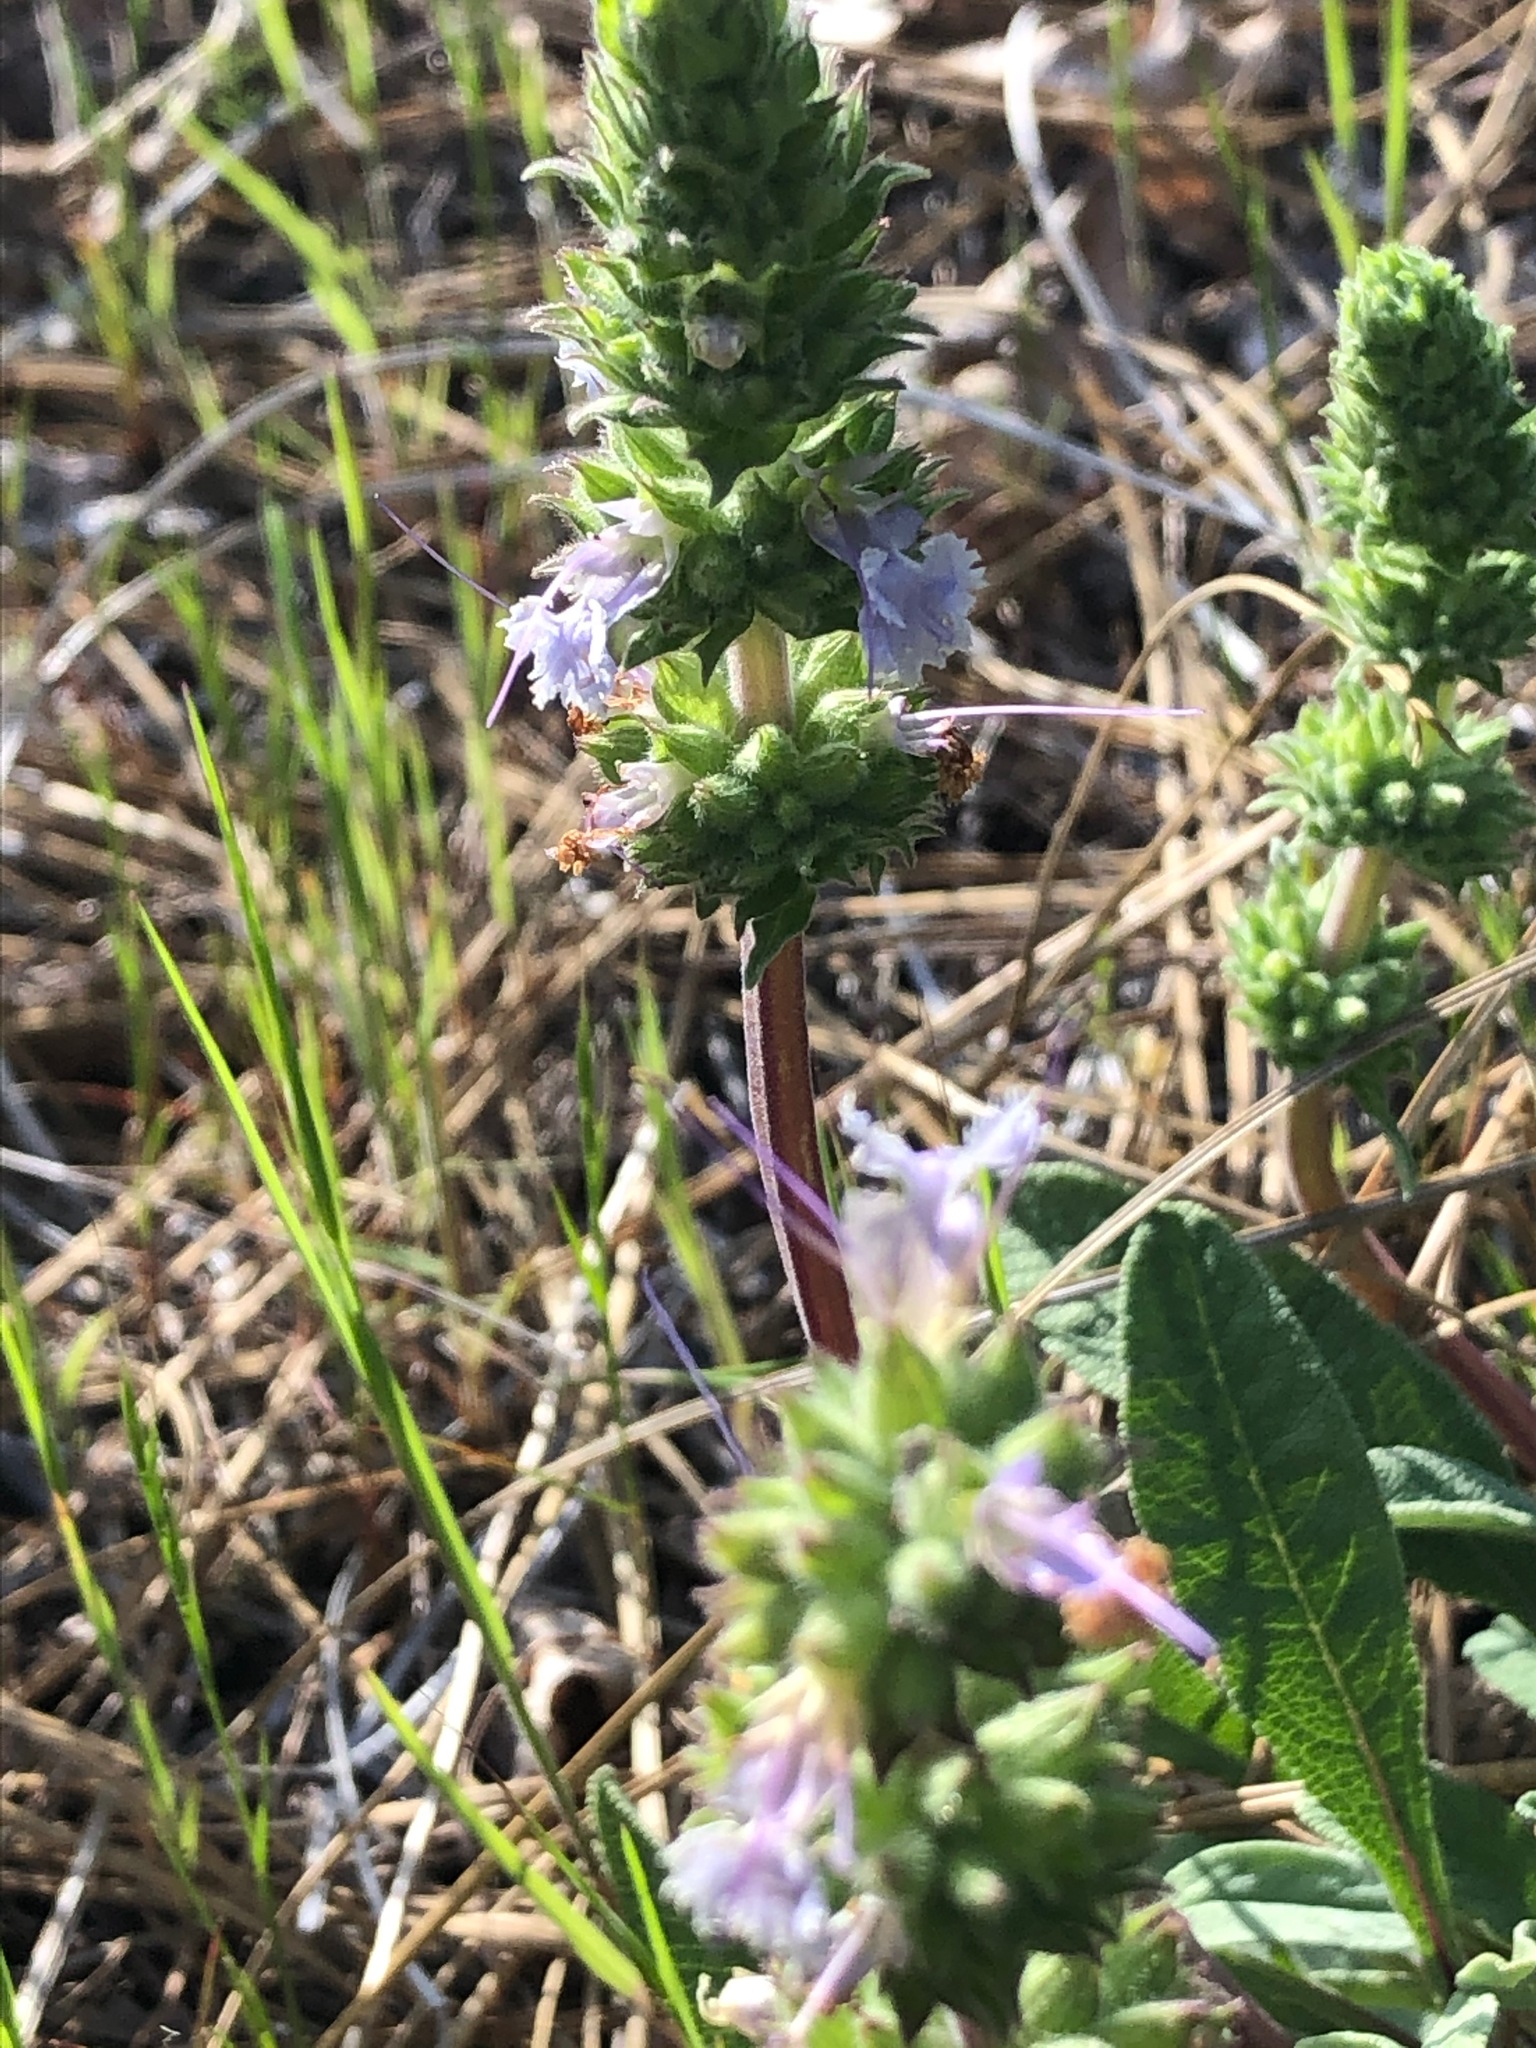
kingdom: Plantae
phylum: Tracheophyta
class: Magnoliopsida
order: Lamiales
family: Lamiaceae
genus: Salvia
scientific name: Salvia sonomensis
